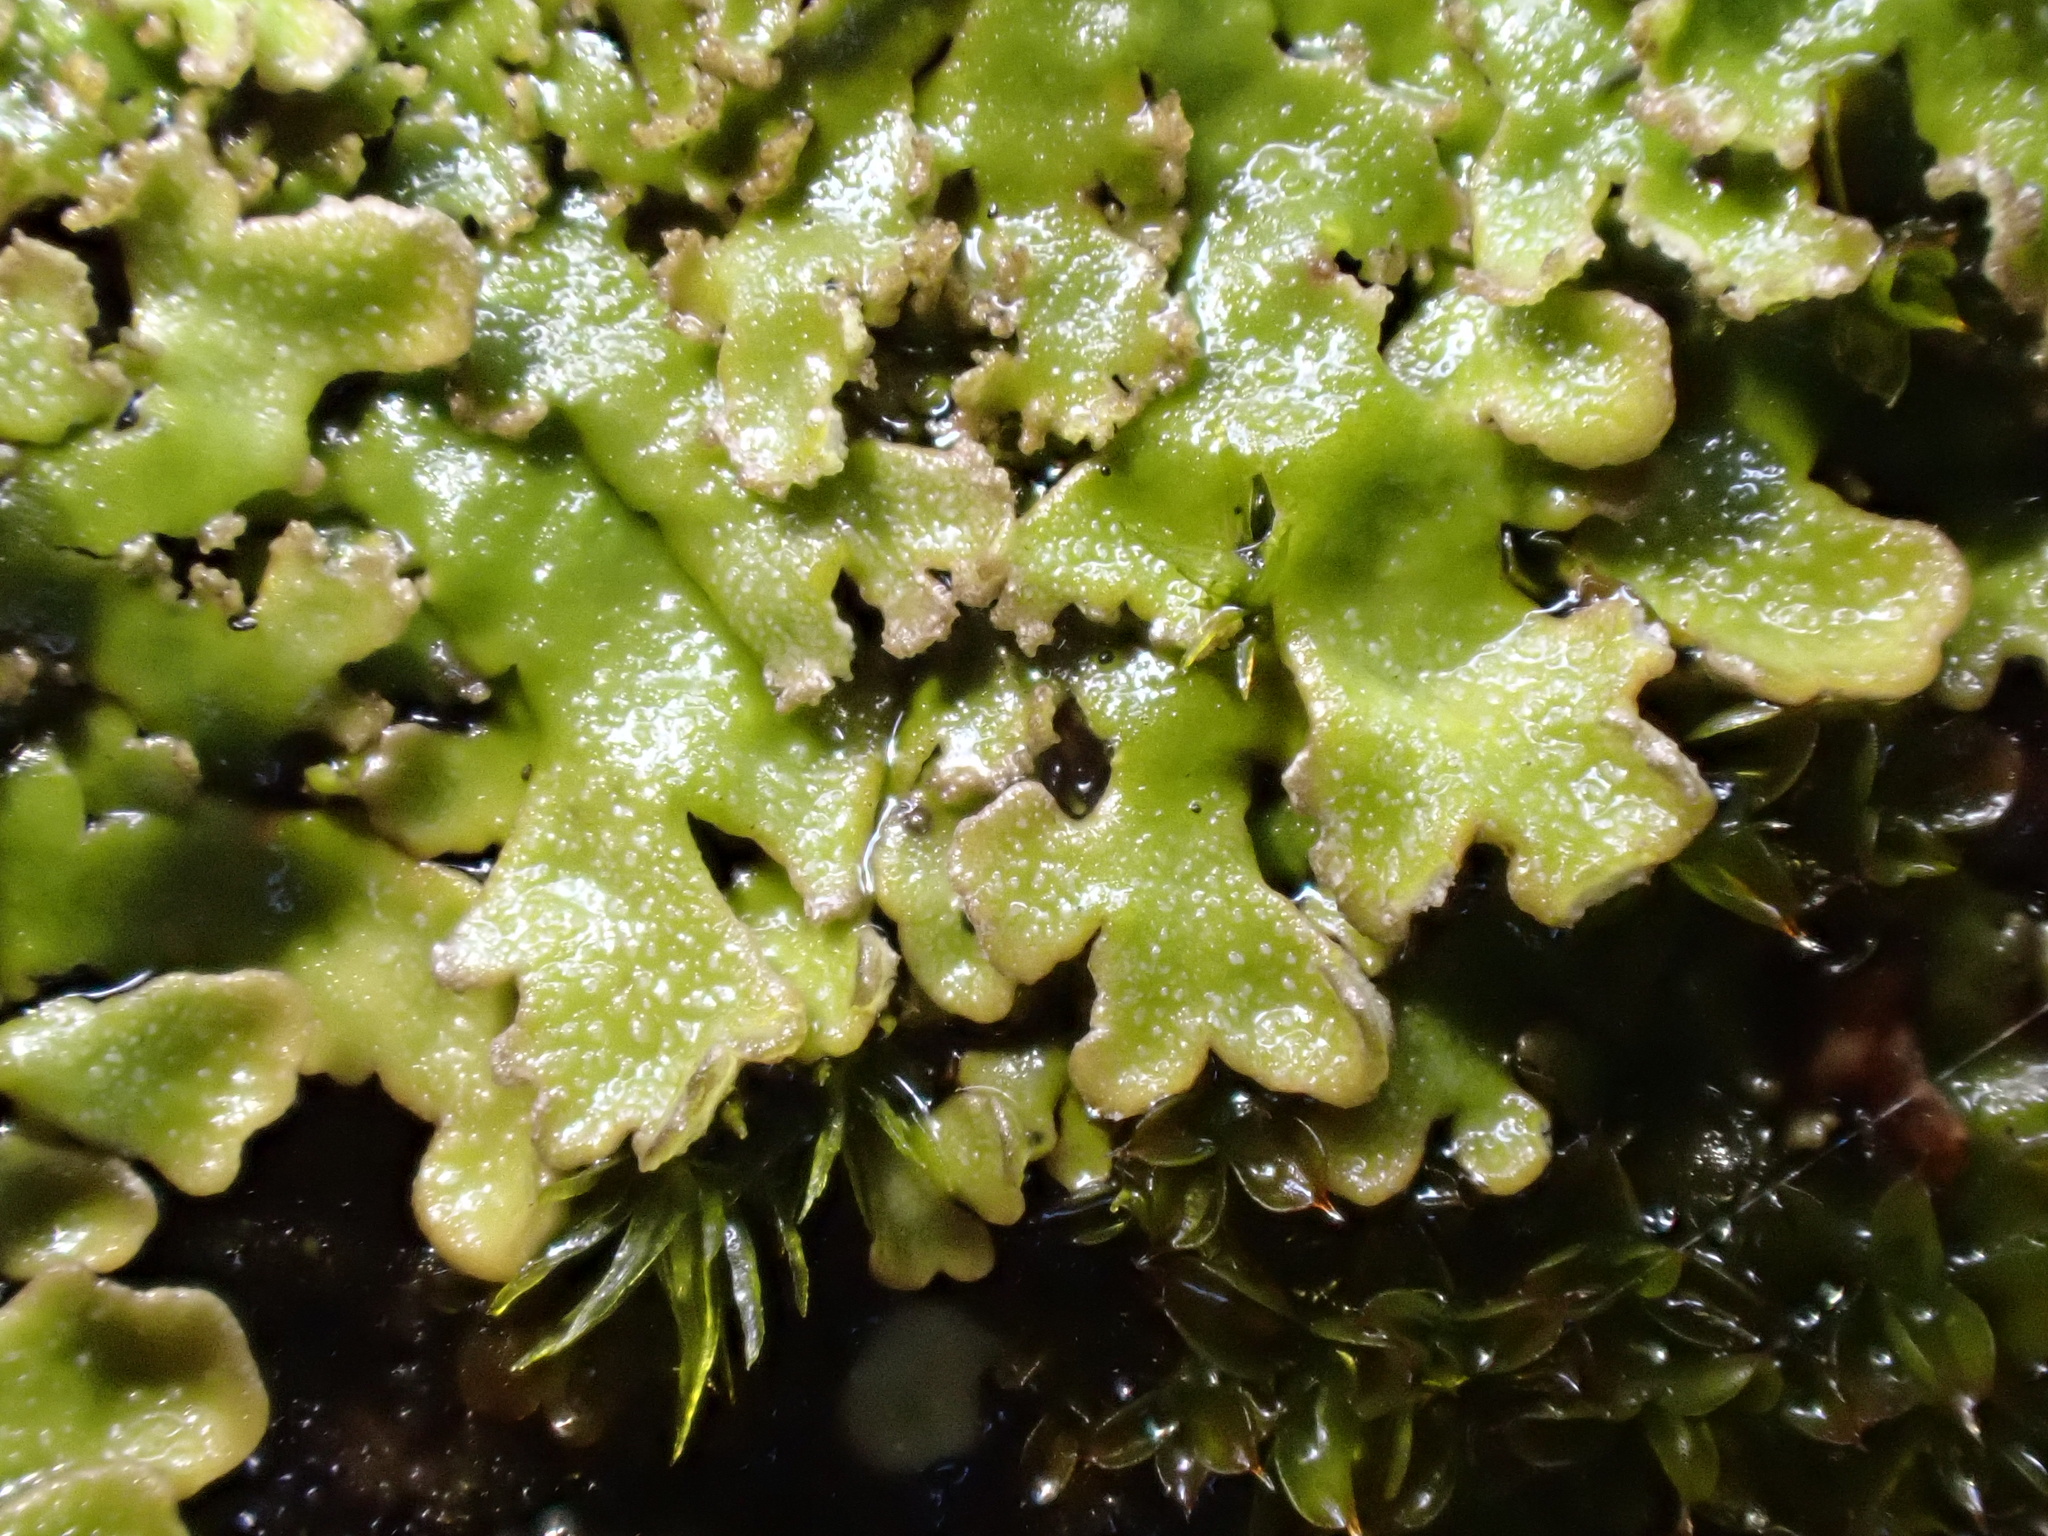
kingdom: Fungi
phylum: Ascomycota
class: Lecanoromycetes
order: Caliciales
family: Physciaceae
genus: Poeltonia
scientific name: Poeltonia grisea
